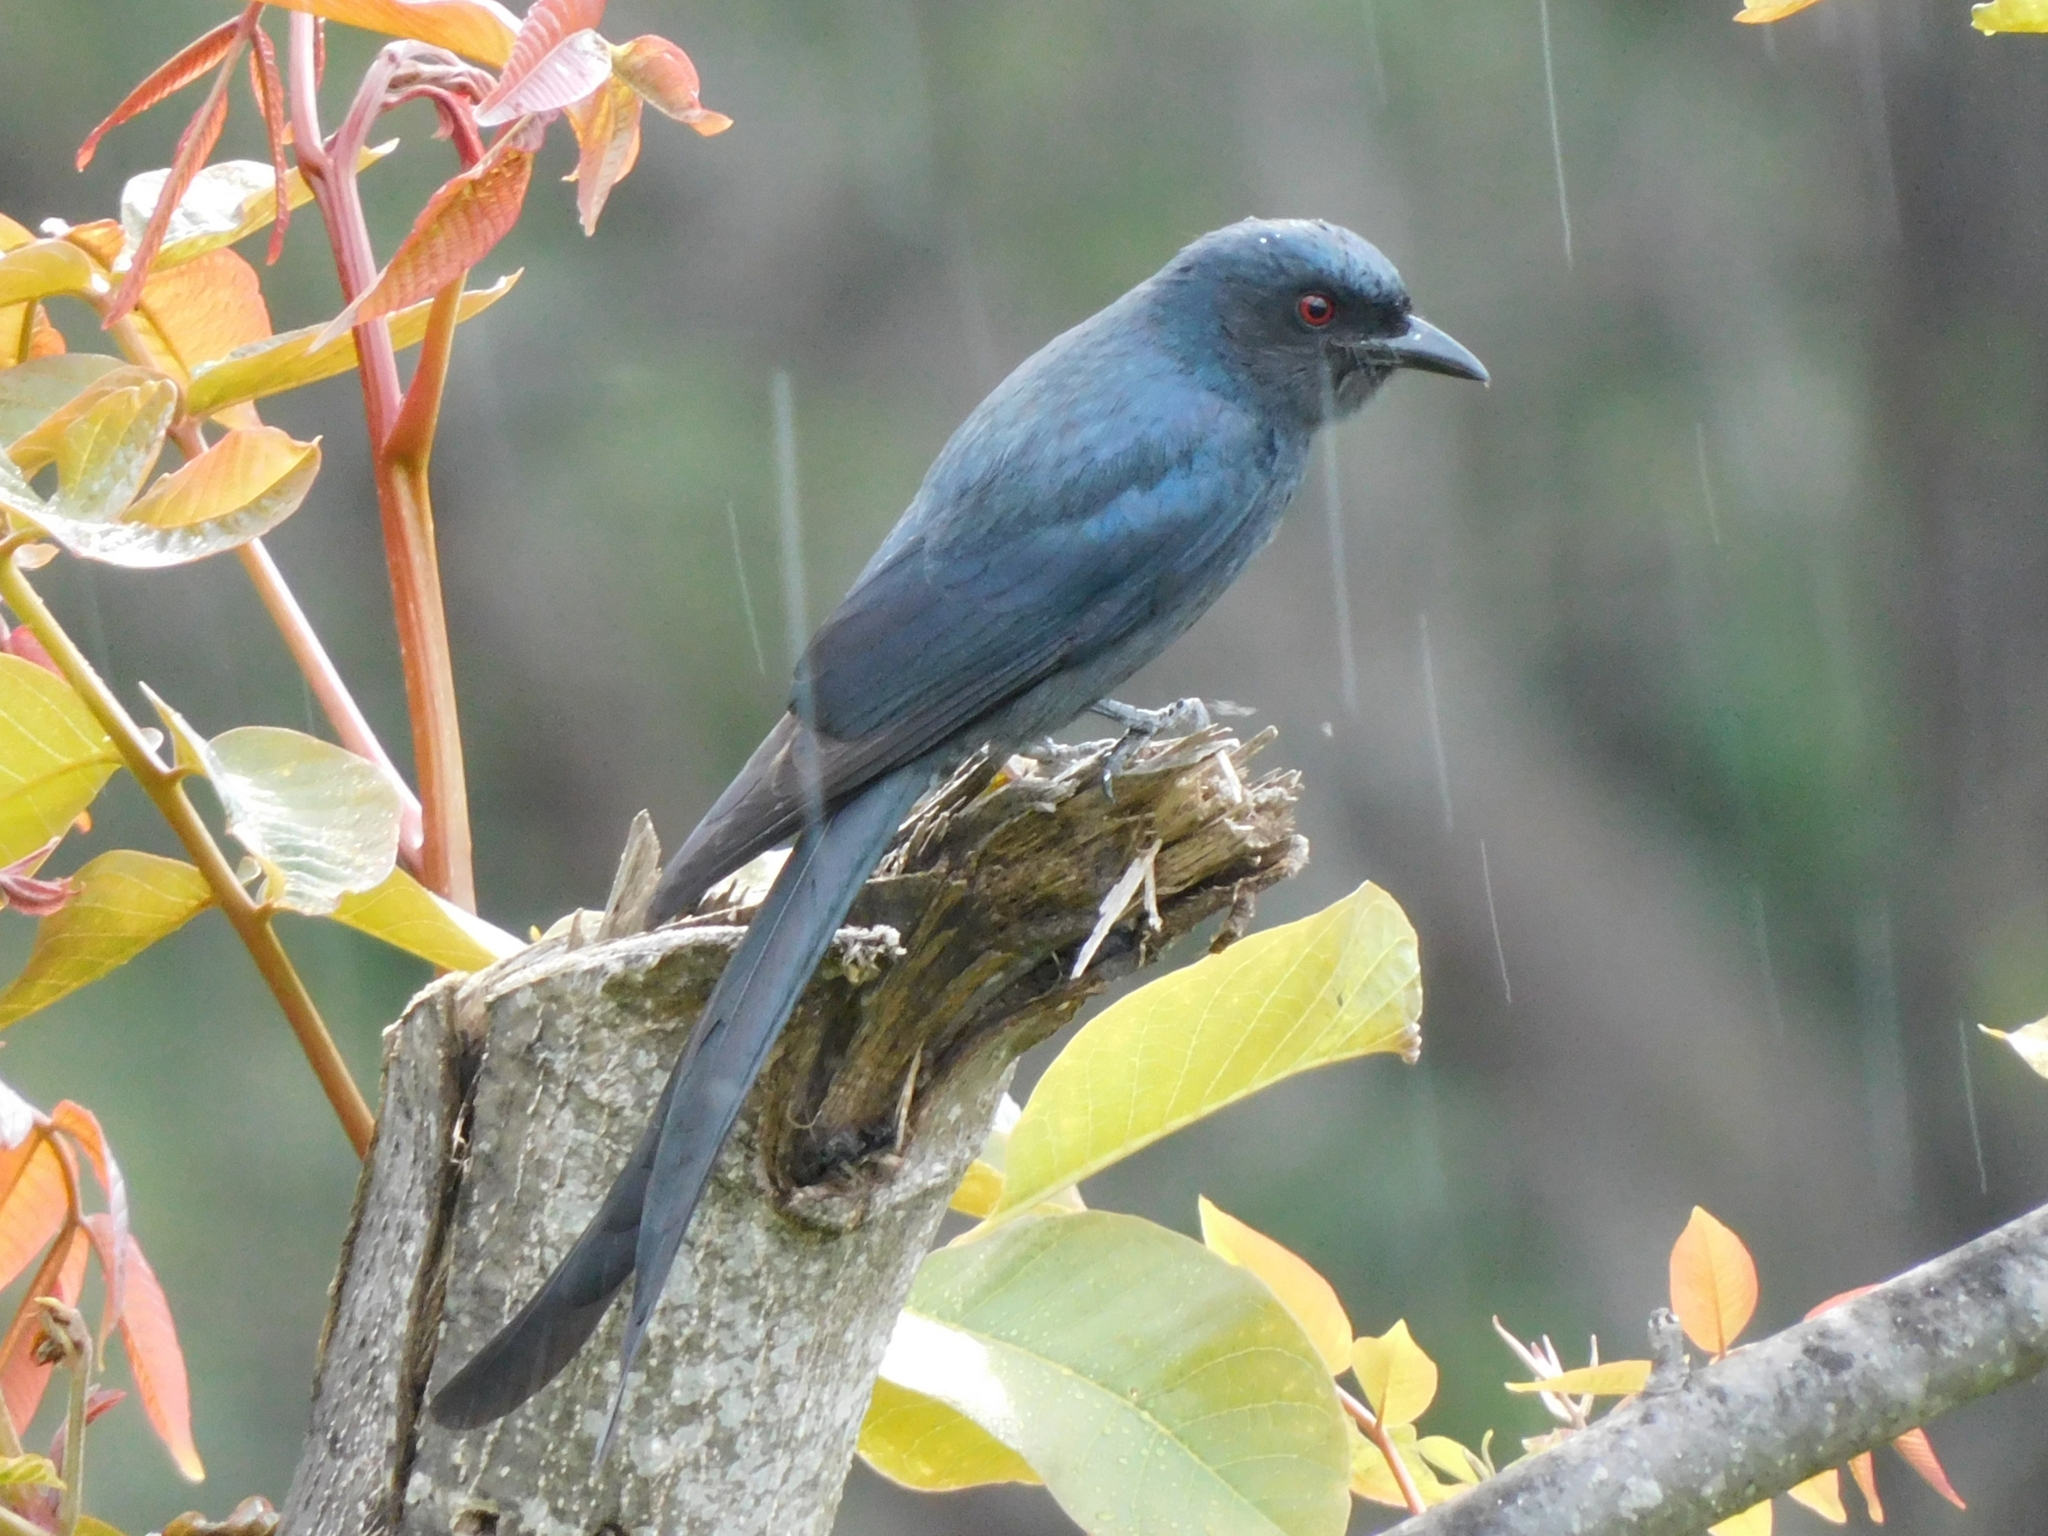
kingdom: Animalia
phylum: Chordata
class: Aves
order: Passeriformes
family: Dicruridae
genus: Dicrurus
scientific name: Dicrurus leucophaeus
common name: Ashy drongo
